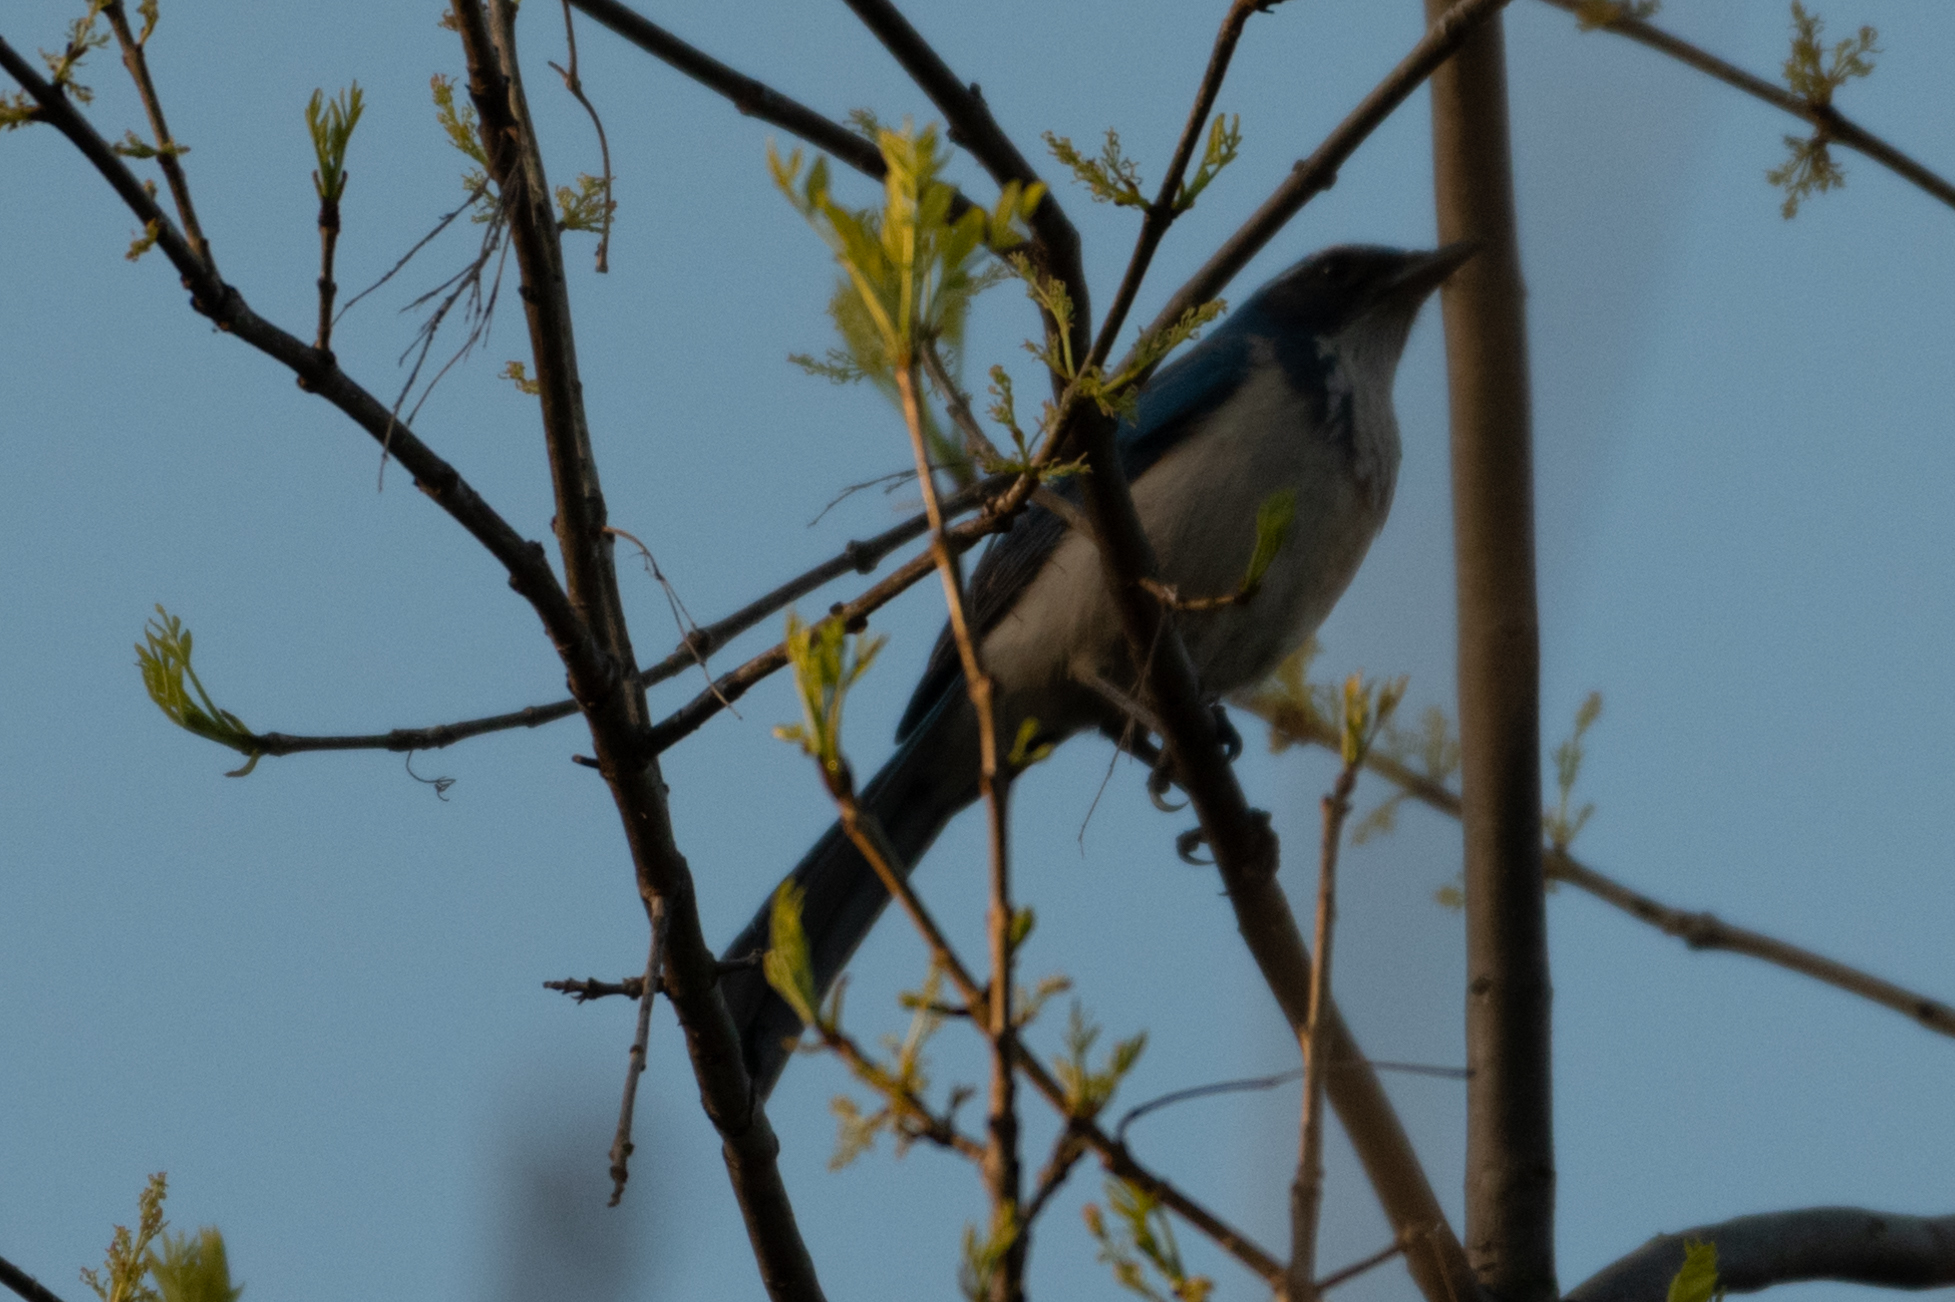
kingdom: Animalia
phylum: Chordata
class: Aves
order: Passeriformes
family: Corvidae
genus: Aphelocoma
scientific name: Aphelocoma californica
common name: California scrub-jay
